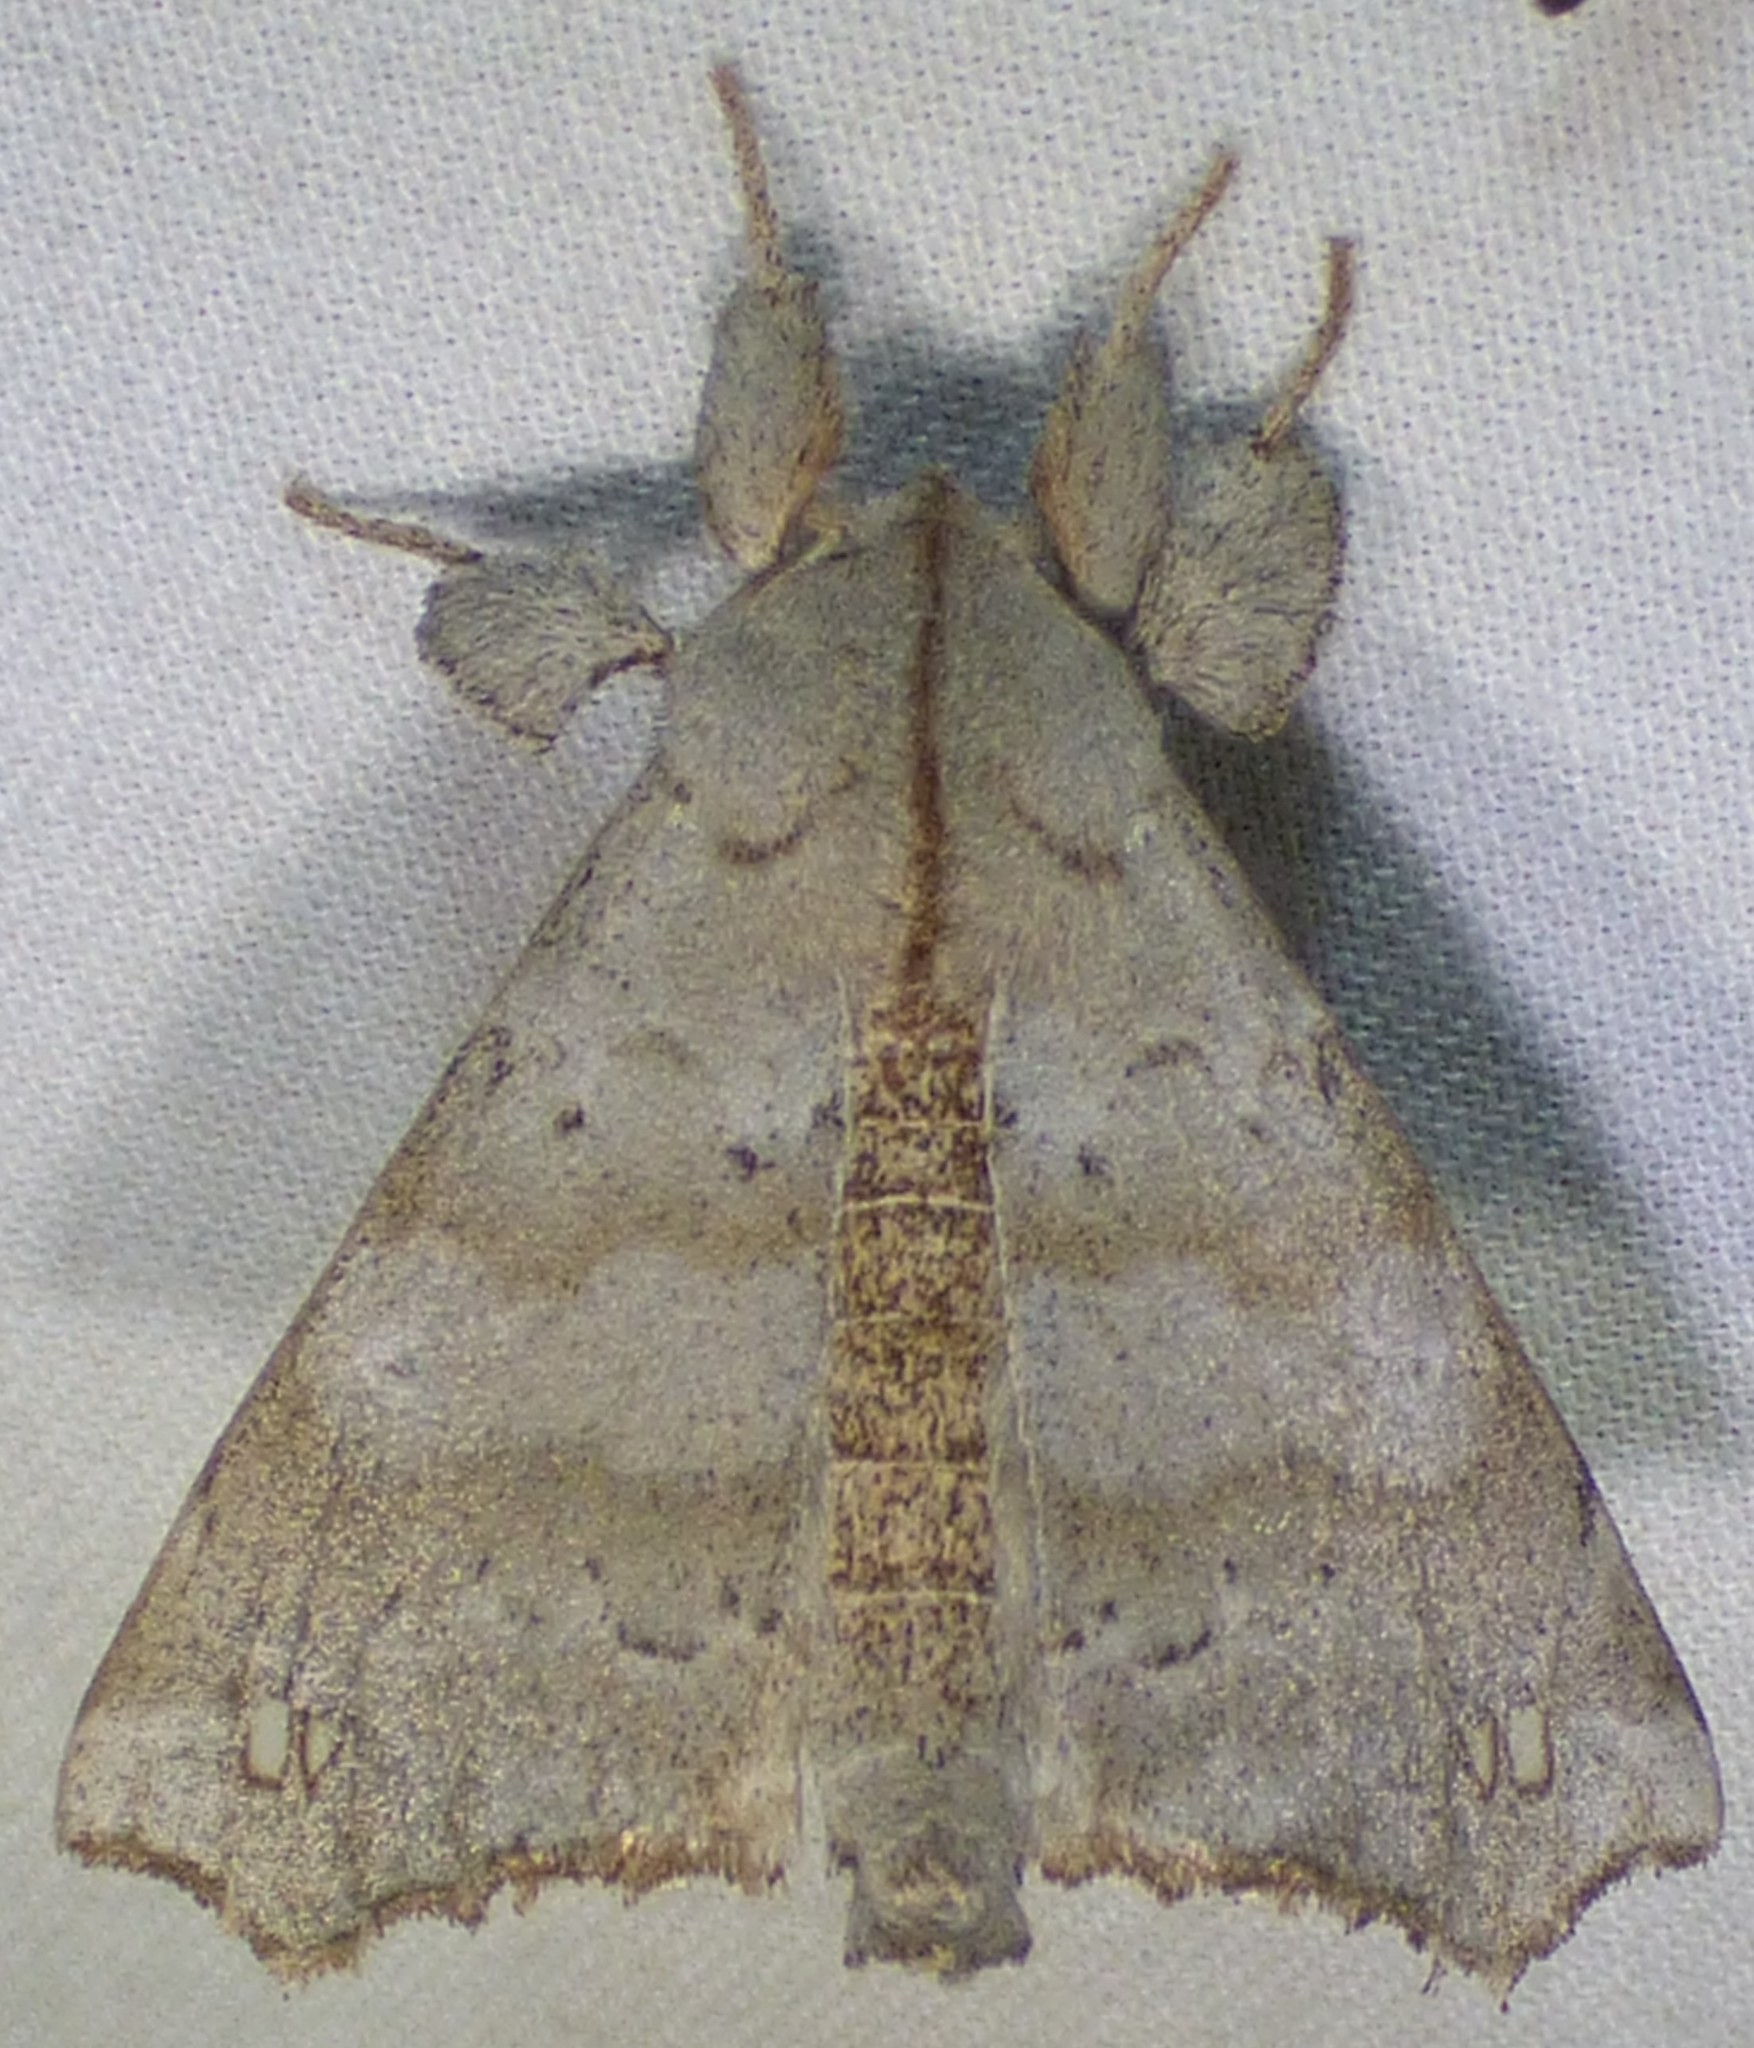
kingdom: Animalia
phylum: Arthropoda
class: Insecta
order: Lepidoptera
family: Apatelodidae
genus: Olceclostera
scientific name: Olceclostera angelica
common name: Angel moth
